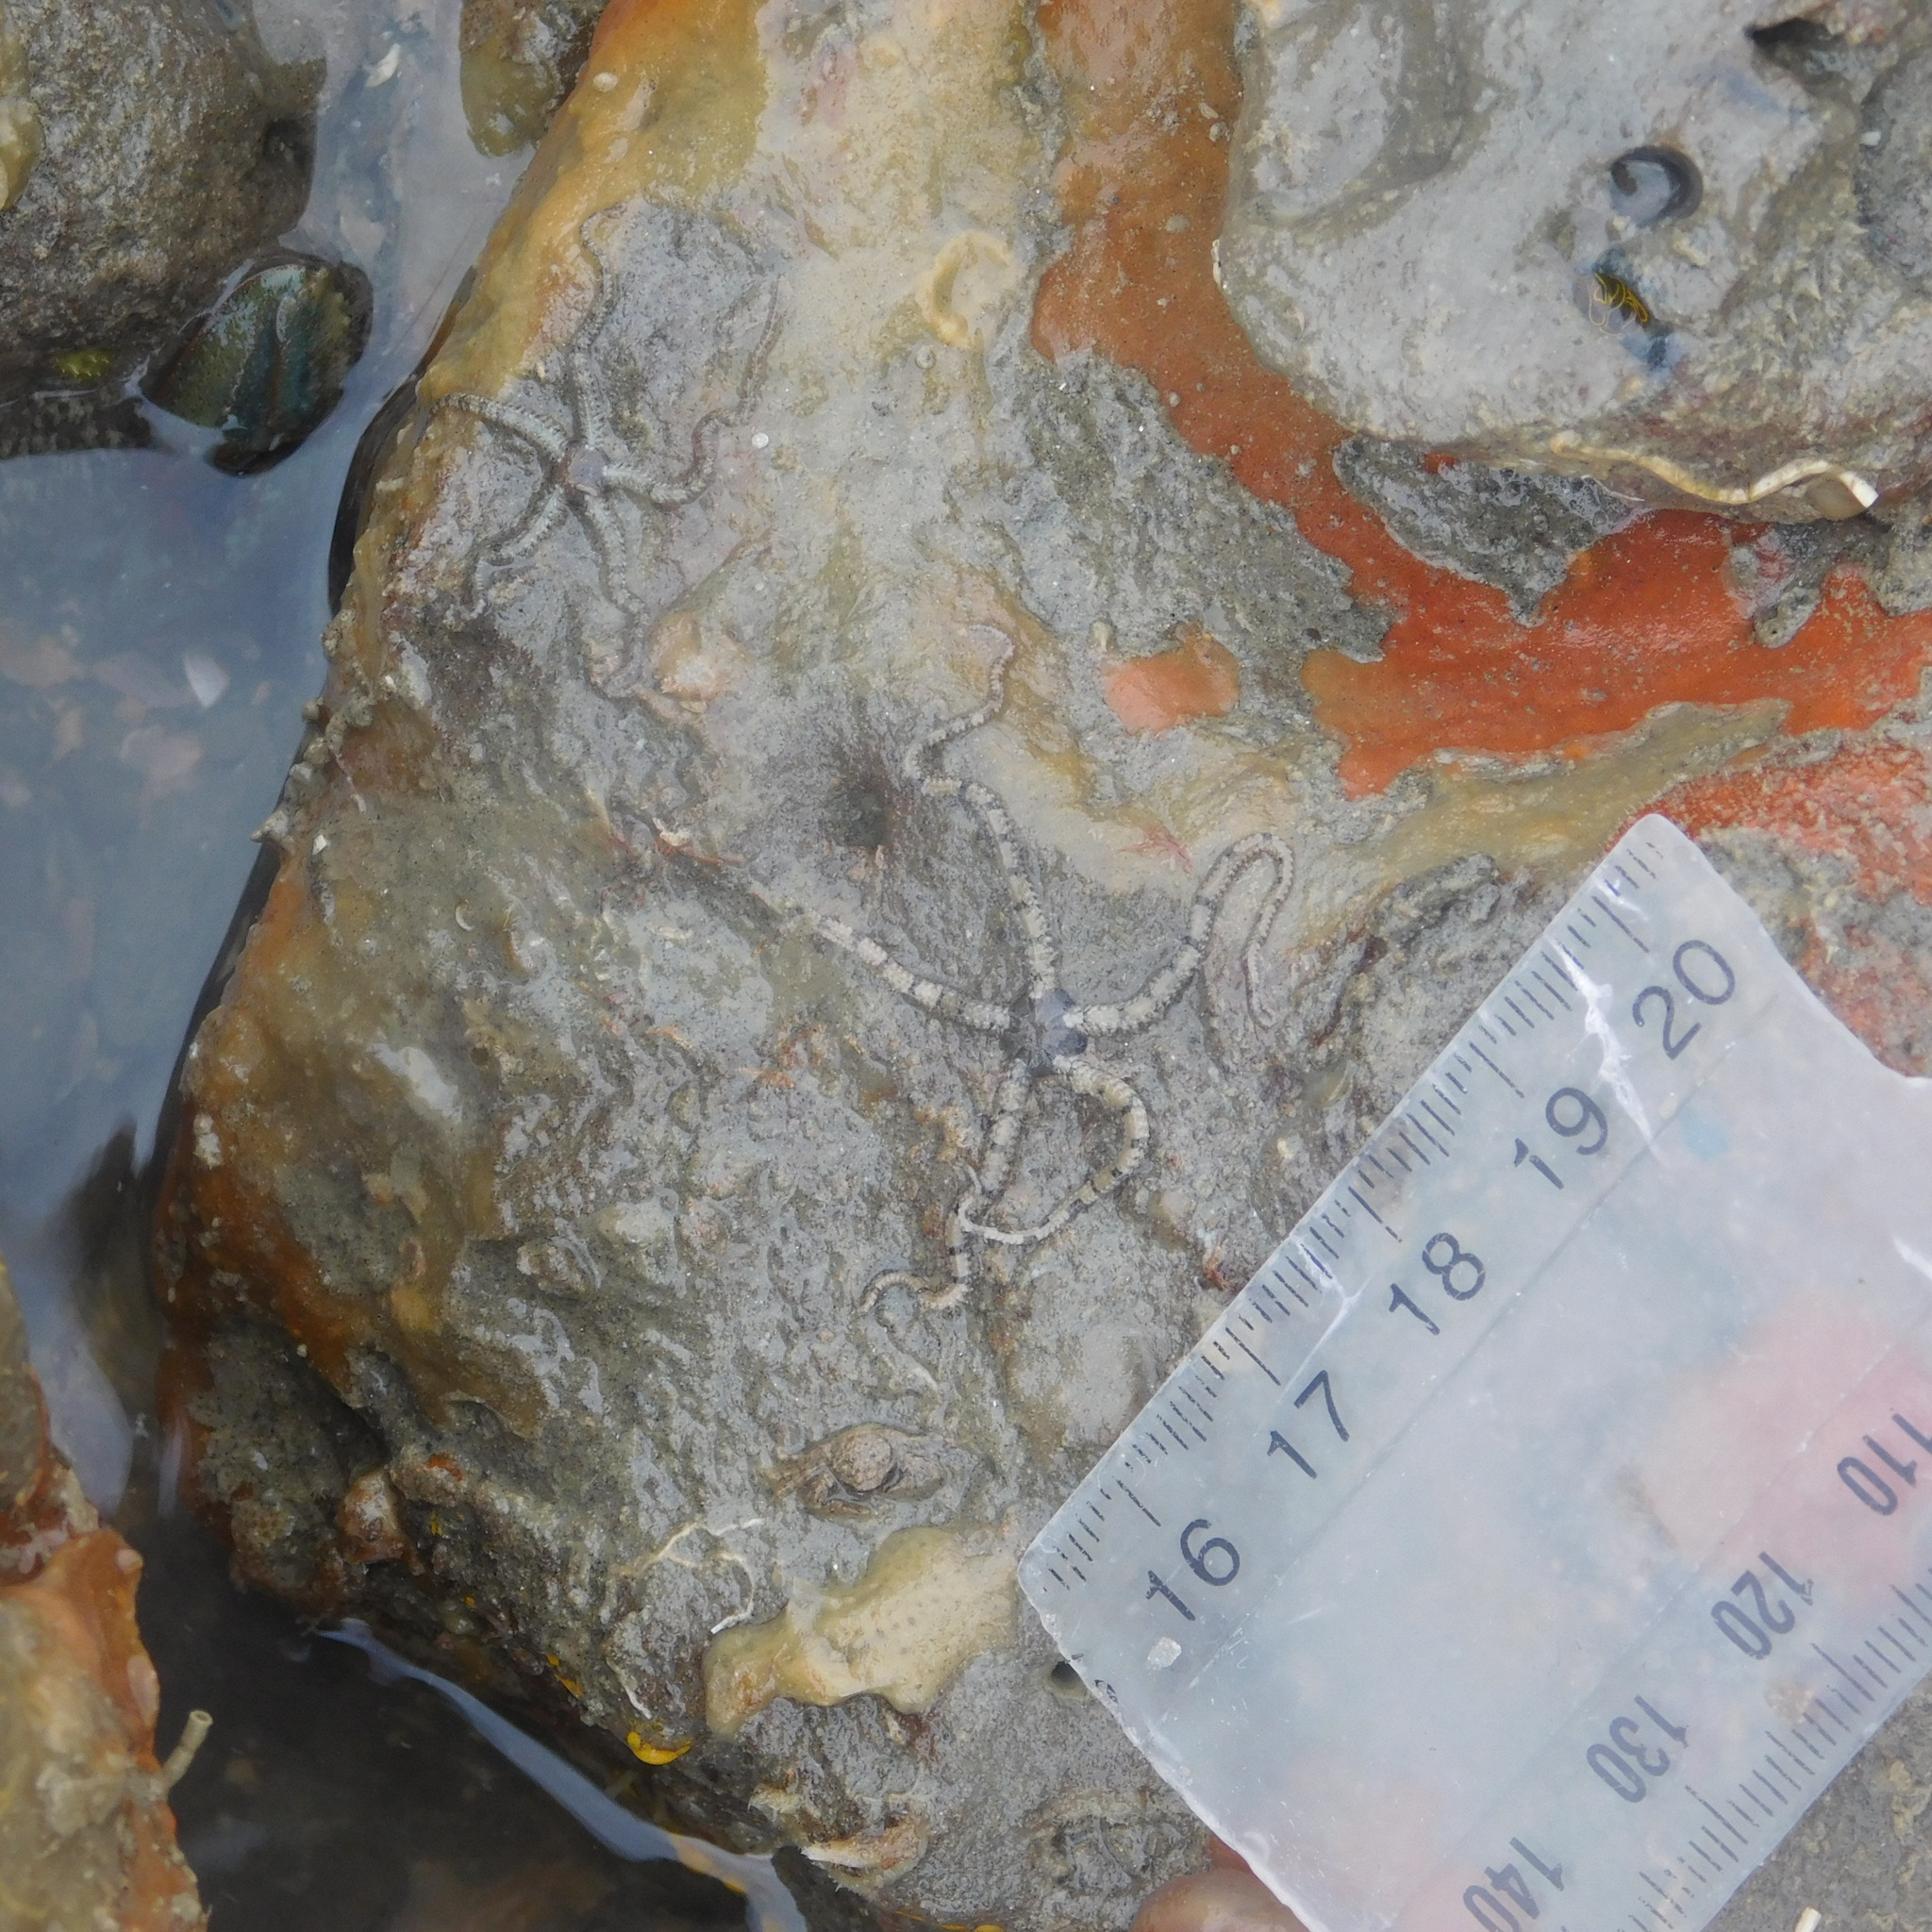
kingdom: Animalia
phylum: Echinodermata
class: Ophiuroidea
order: Amphilepidida
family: Ophiactidae
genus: Ophiactis
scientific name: Ophiactis resiliens
